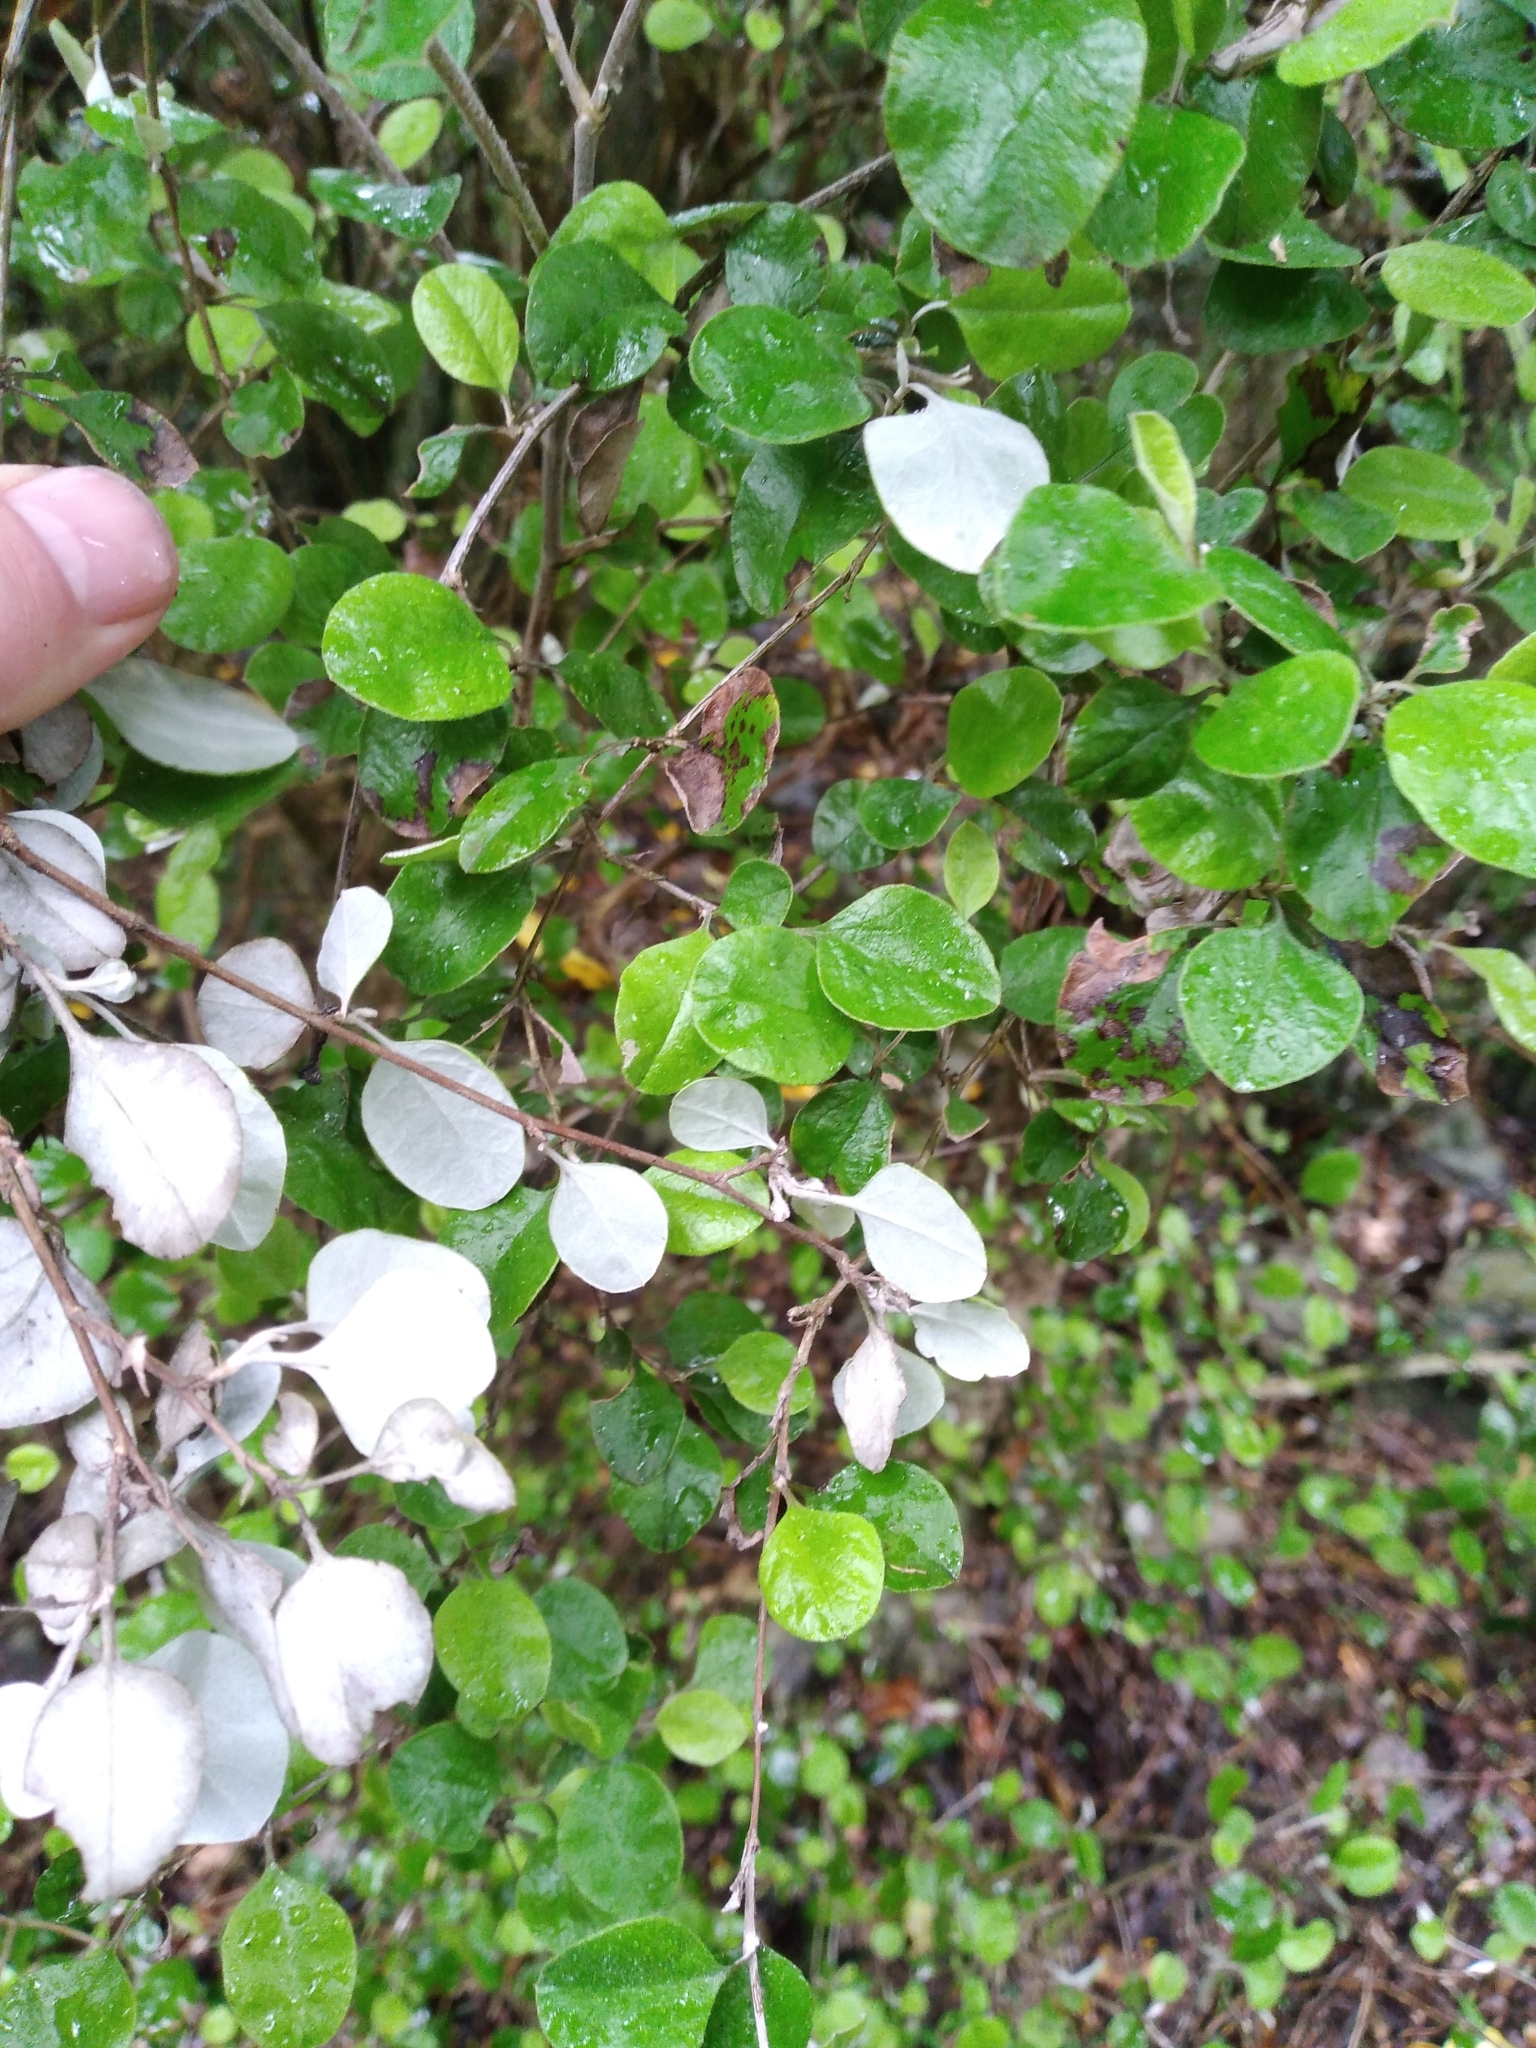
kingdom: Plantae
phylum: Tracheophyta
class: Magnoliopsida
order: Asterales
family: Asteraceae
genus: Ozothamnus
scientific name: Ozothamnus glomeratus
